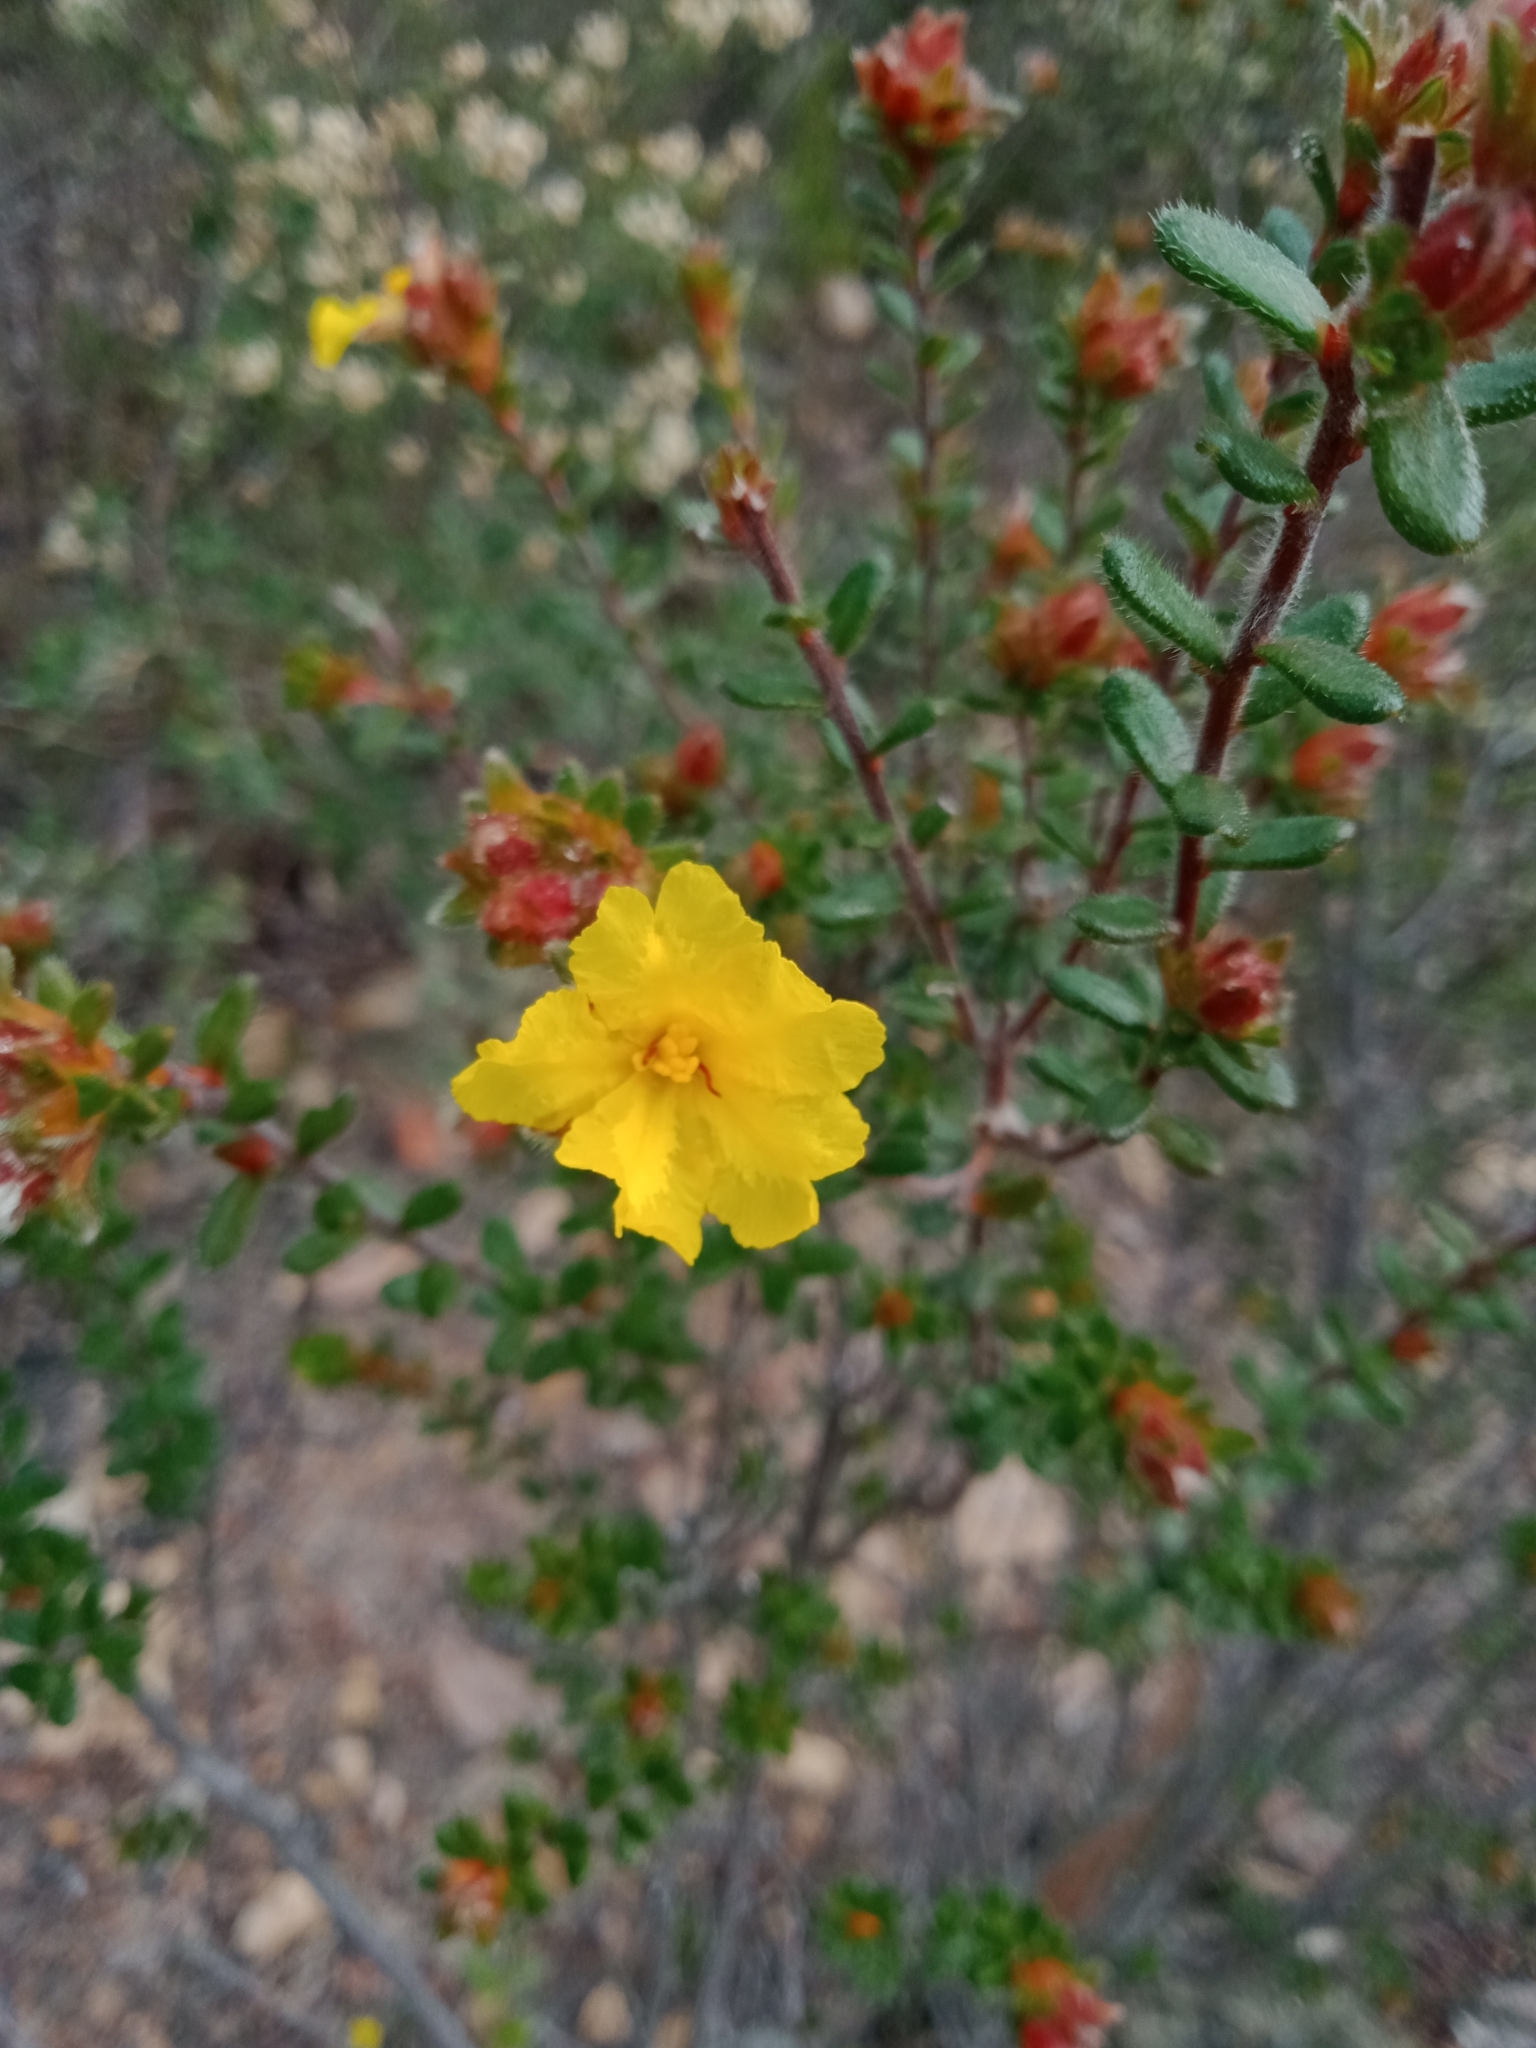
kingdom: Plantae
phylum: Tracheophyta
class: Magnoliopsida
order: Dilleniales
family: Dilleniaceae
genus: Hibbertia
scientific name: Hibbertia sericea
